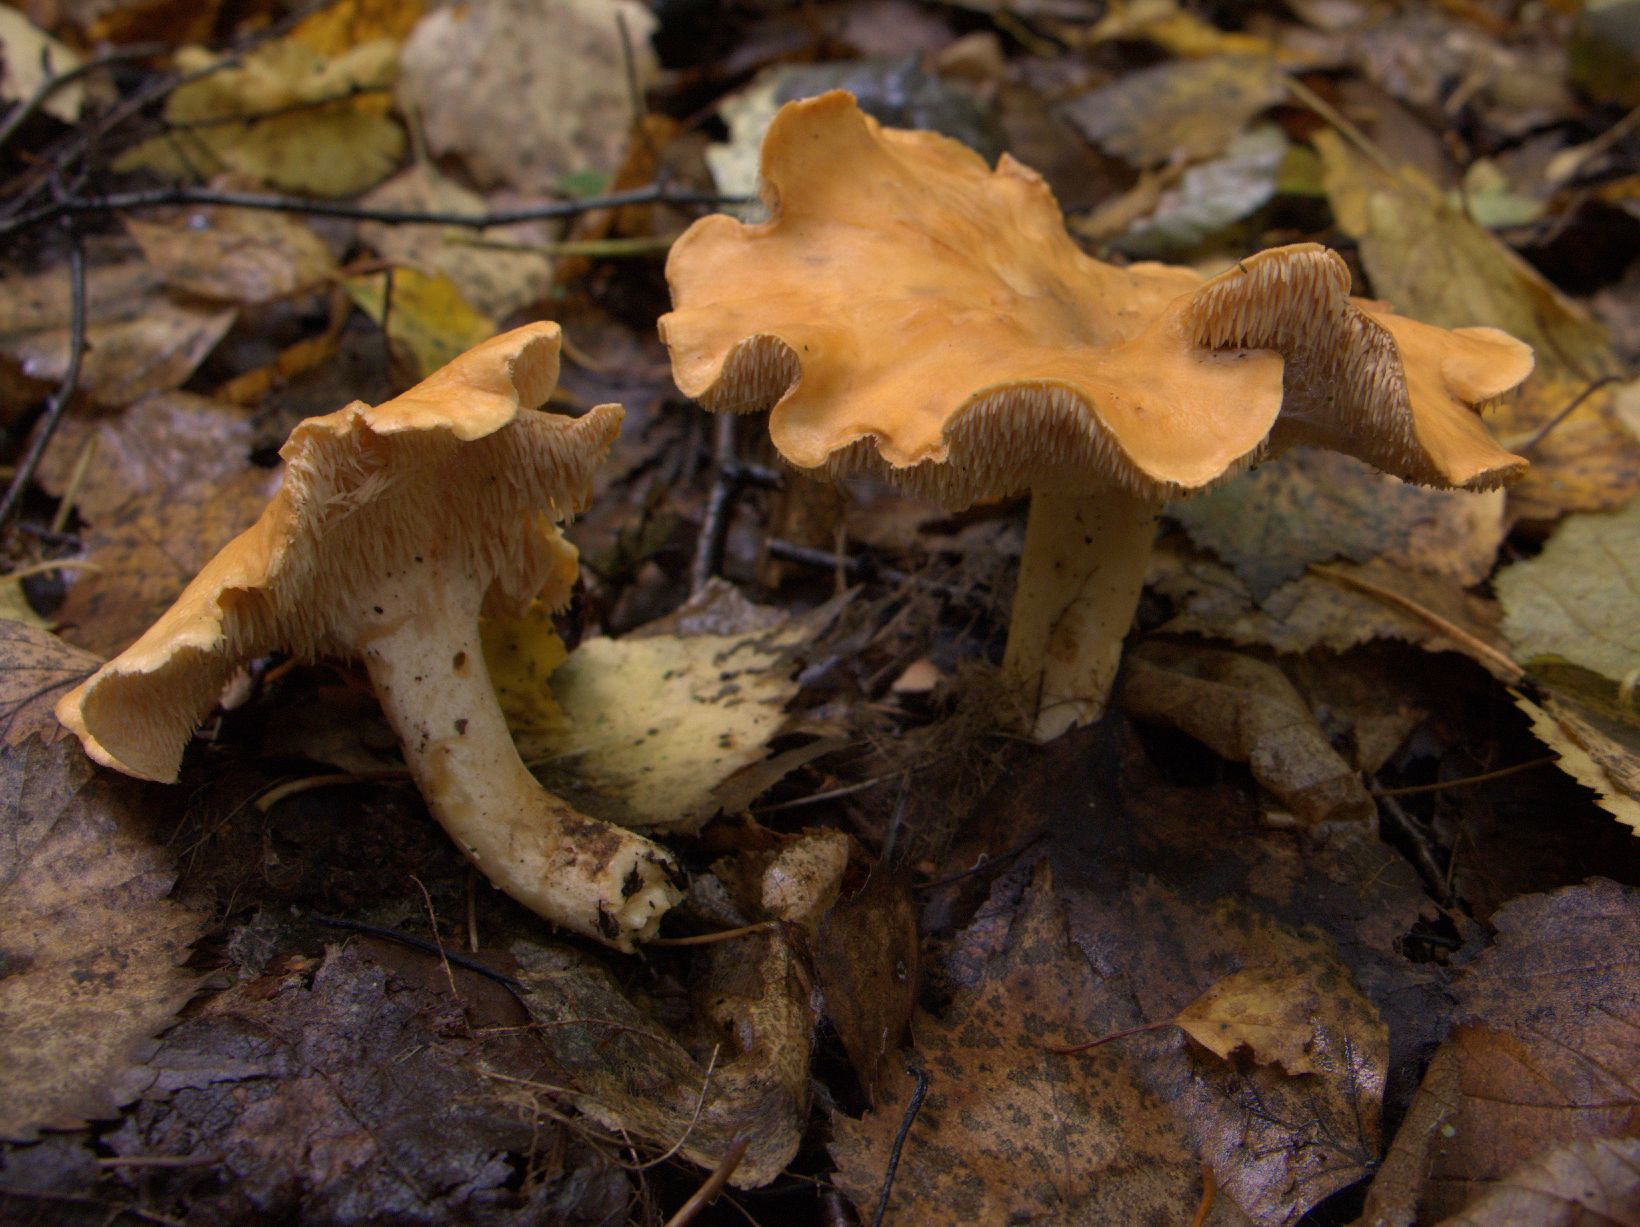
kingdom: Fungi
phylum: Basidiomycota
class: Agaricomycetes
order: Cantharellales
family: Hydnaceae
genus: Hydnum
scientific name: Hydnum rufescens
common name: Terracotta hedgehog
